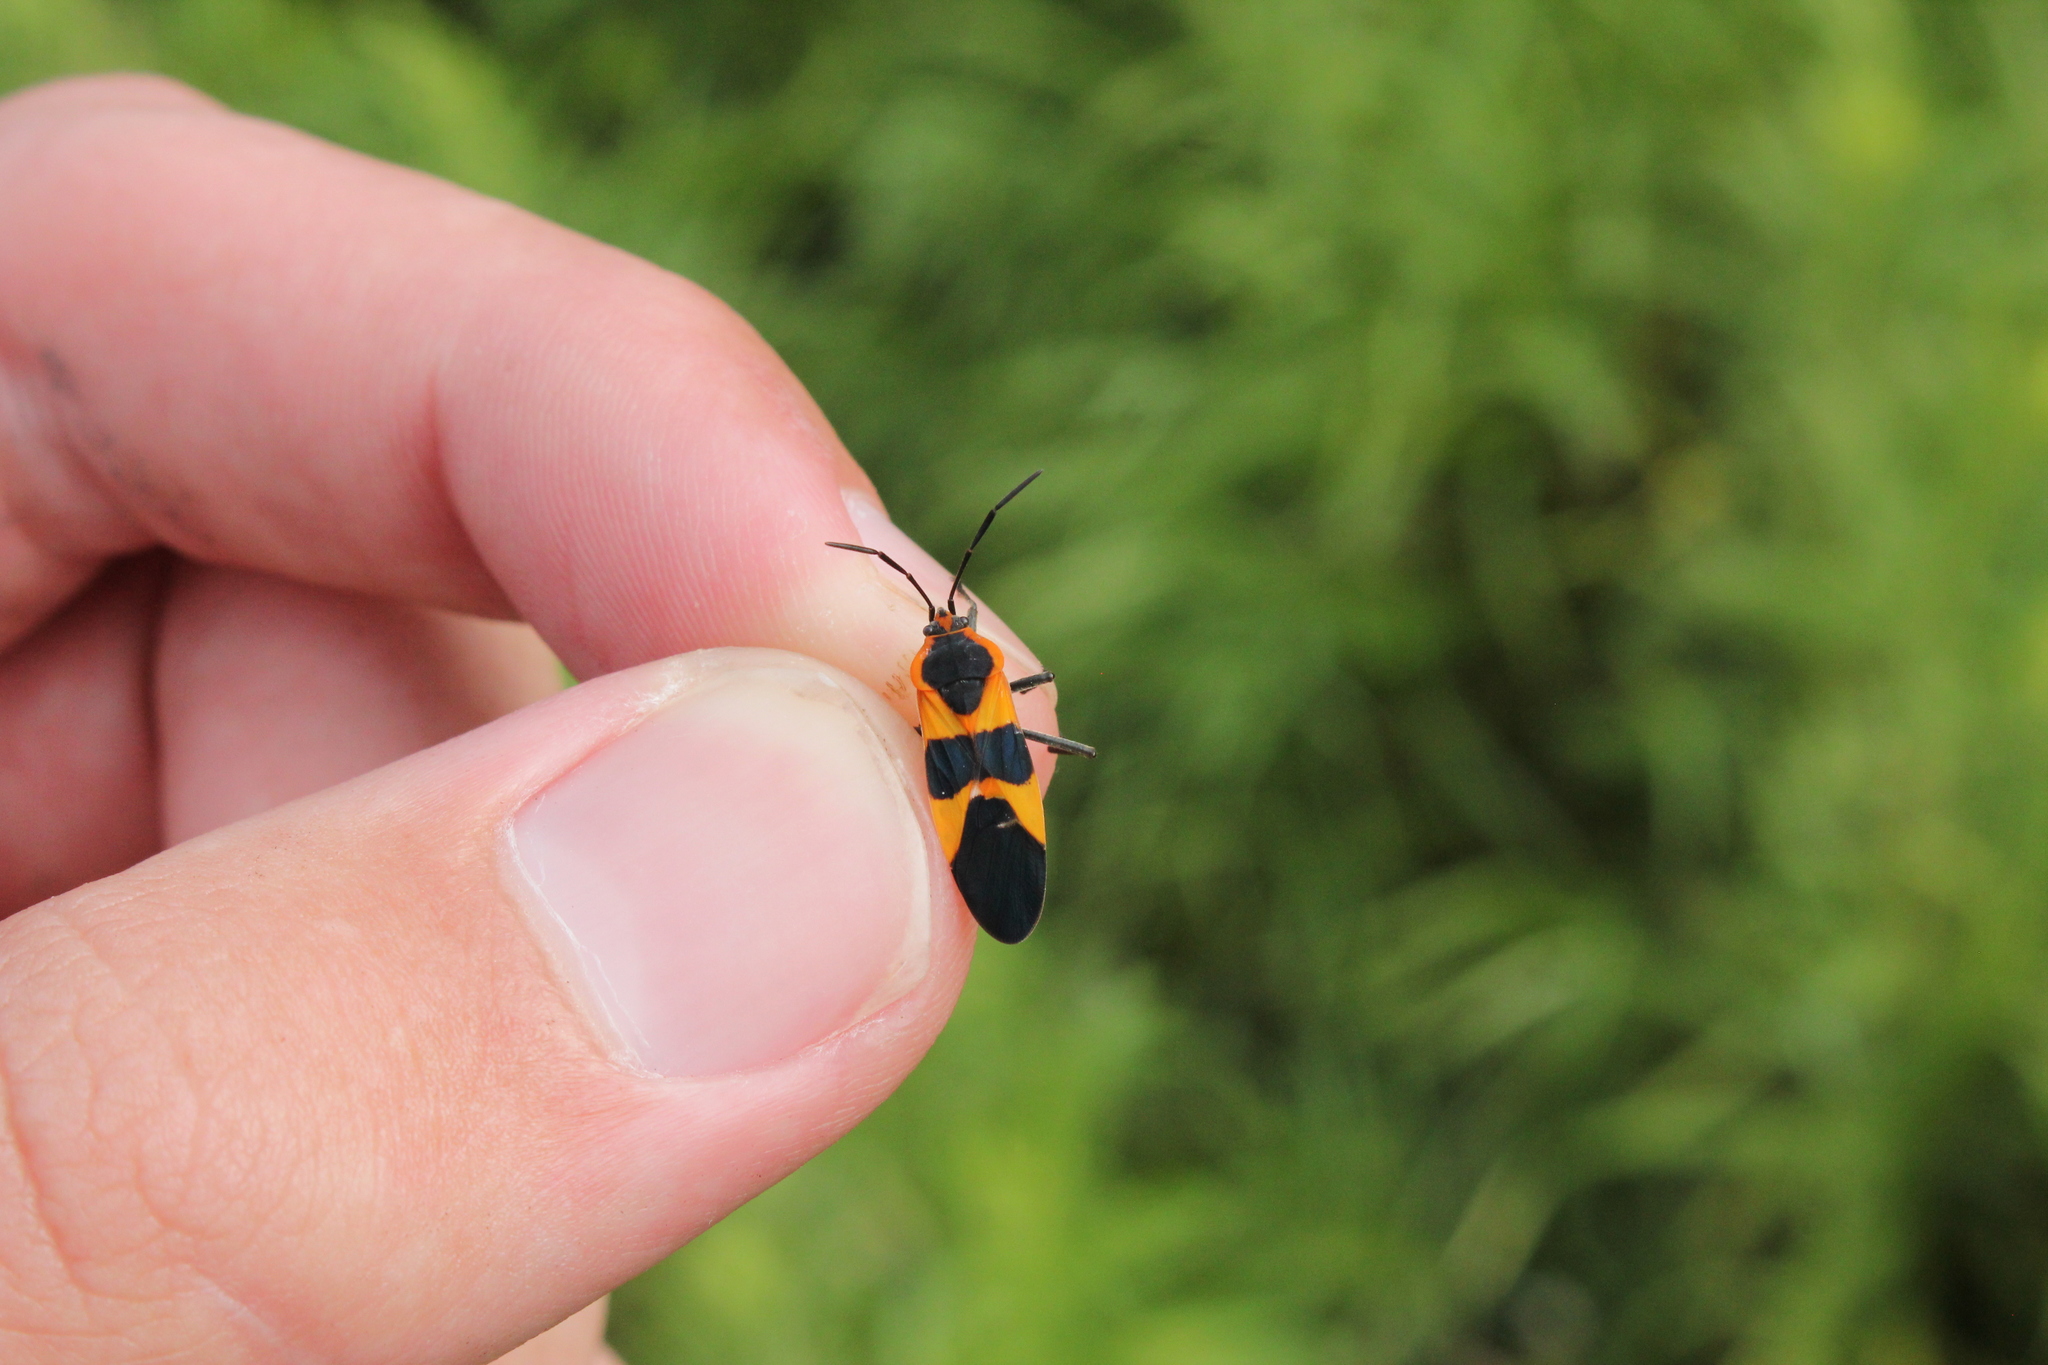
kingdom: Animalia
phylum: Arthropoda
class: Insecta
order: Hemiptera
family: Lygaeidae
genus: Oncopeltus
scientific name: Oncopeltus fasciatus
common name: Large milkweed bug
